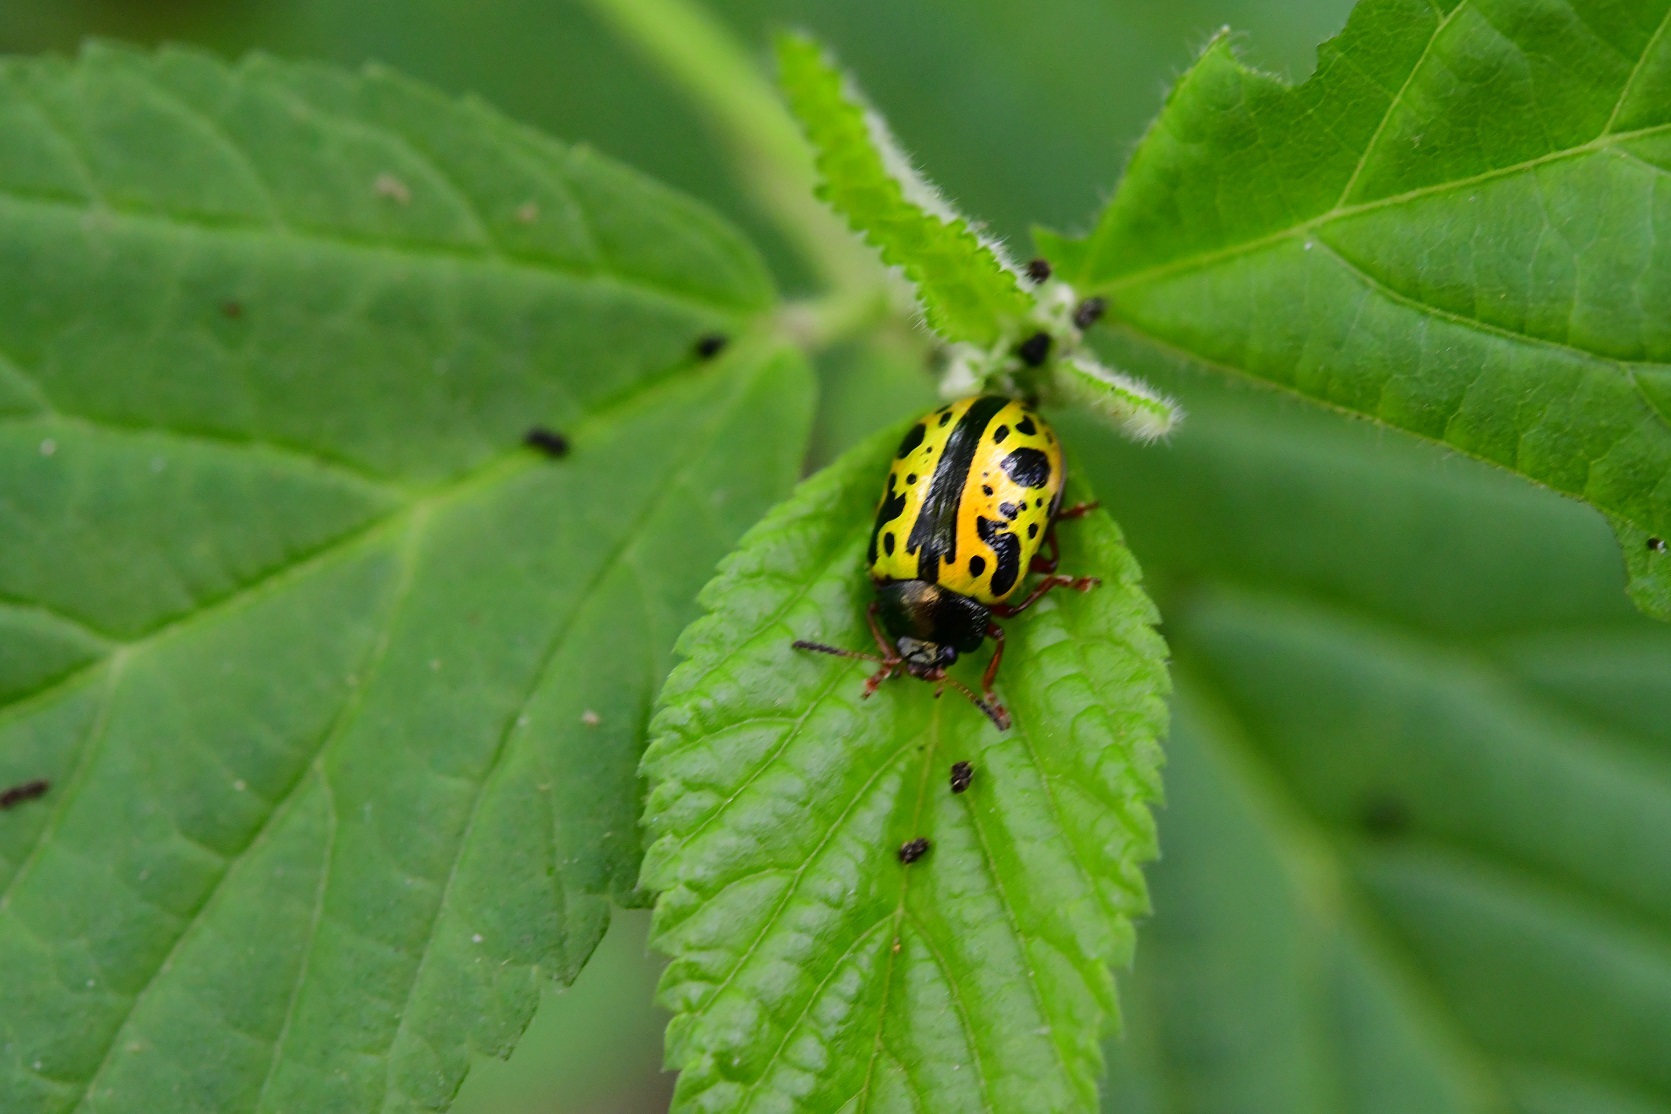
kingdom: Animalia
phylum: Arthropoda
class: Insecta
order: Coleoptera
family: Chrysomelidae
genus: Calligrapha
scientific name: Calligrapha fulvipes
